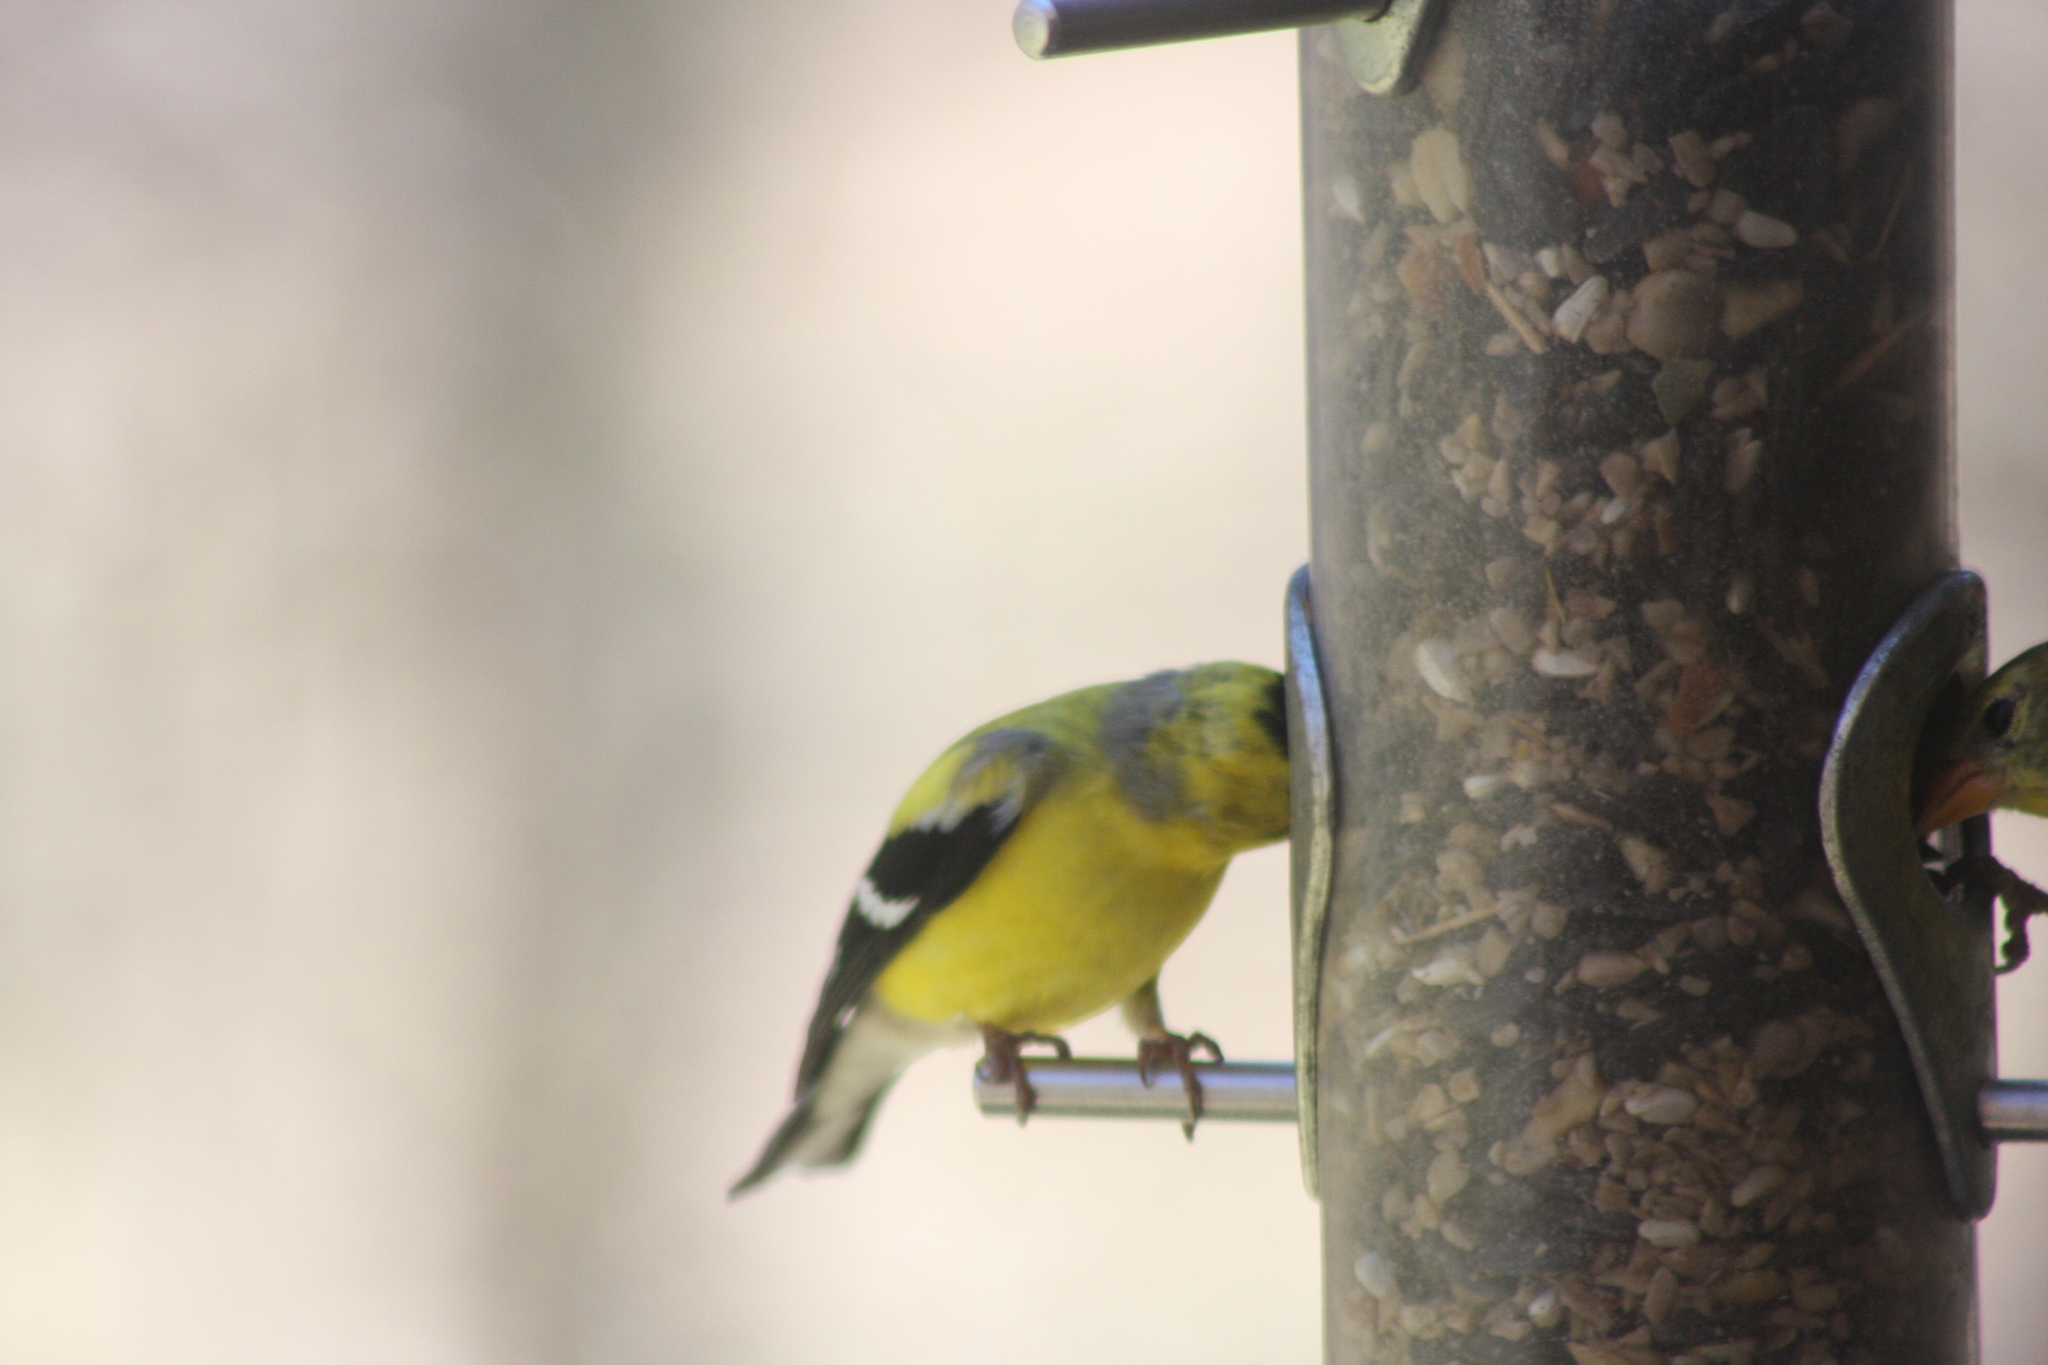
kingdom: Animalia
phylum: Chordata
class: Aves
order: Passeriformes
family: Fringillidae
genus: Spinus
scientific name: Spinus tristis
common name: American goldfinch
